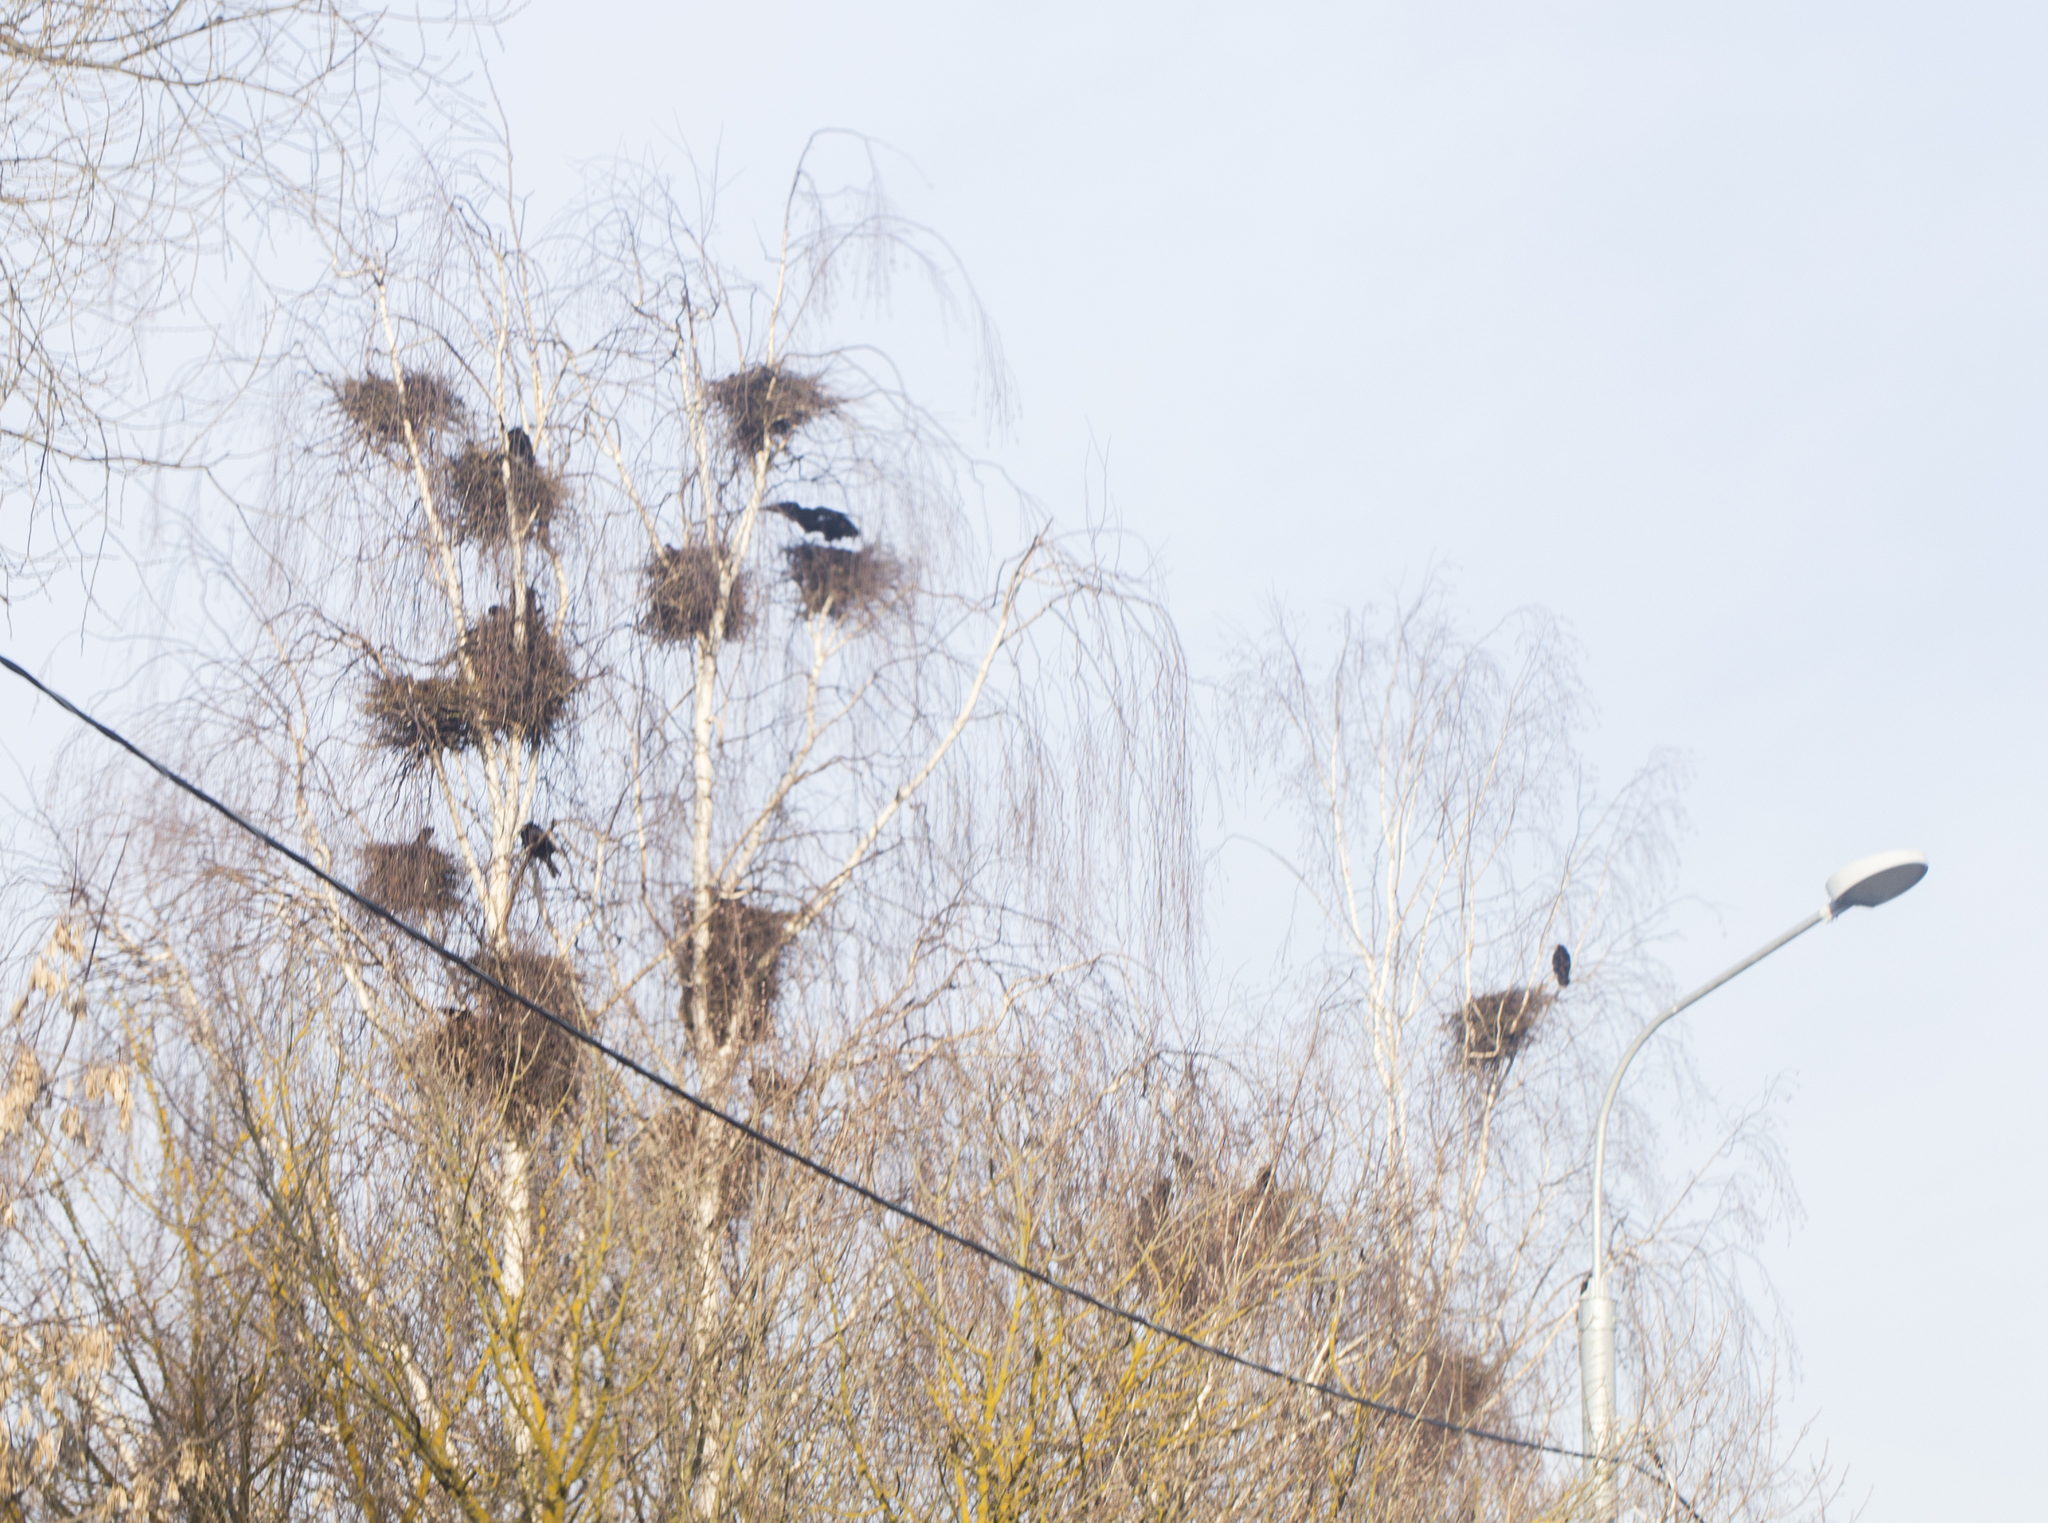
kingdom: Animalia
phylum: Chordata
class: Aves
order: Passeriformes
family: Corvidae
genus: Corvus
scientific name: Corvus frugilegus
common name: Rook
